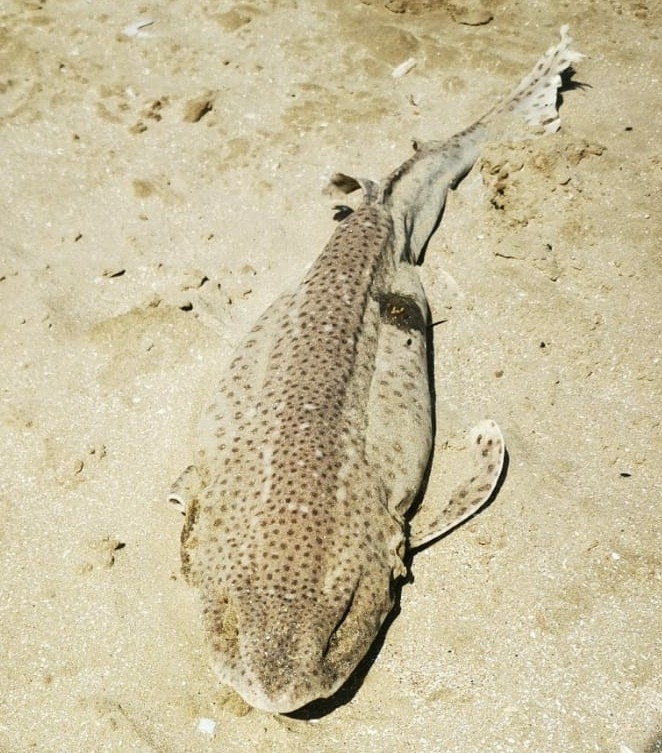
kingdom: Animalia
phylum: Chordata
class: Elasmobranchii
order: Carcharhiniformes
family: Scyliorhinidae
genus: Scyliorhinus
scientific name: Scyliorhinus stellaris
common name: Nursehound
